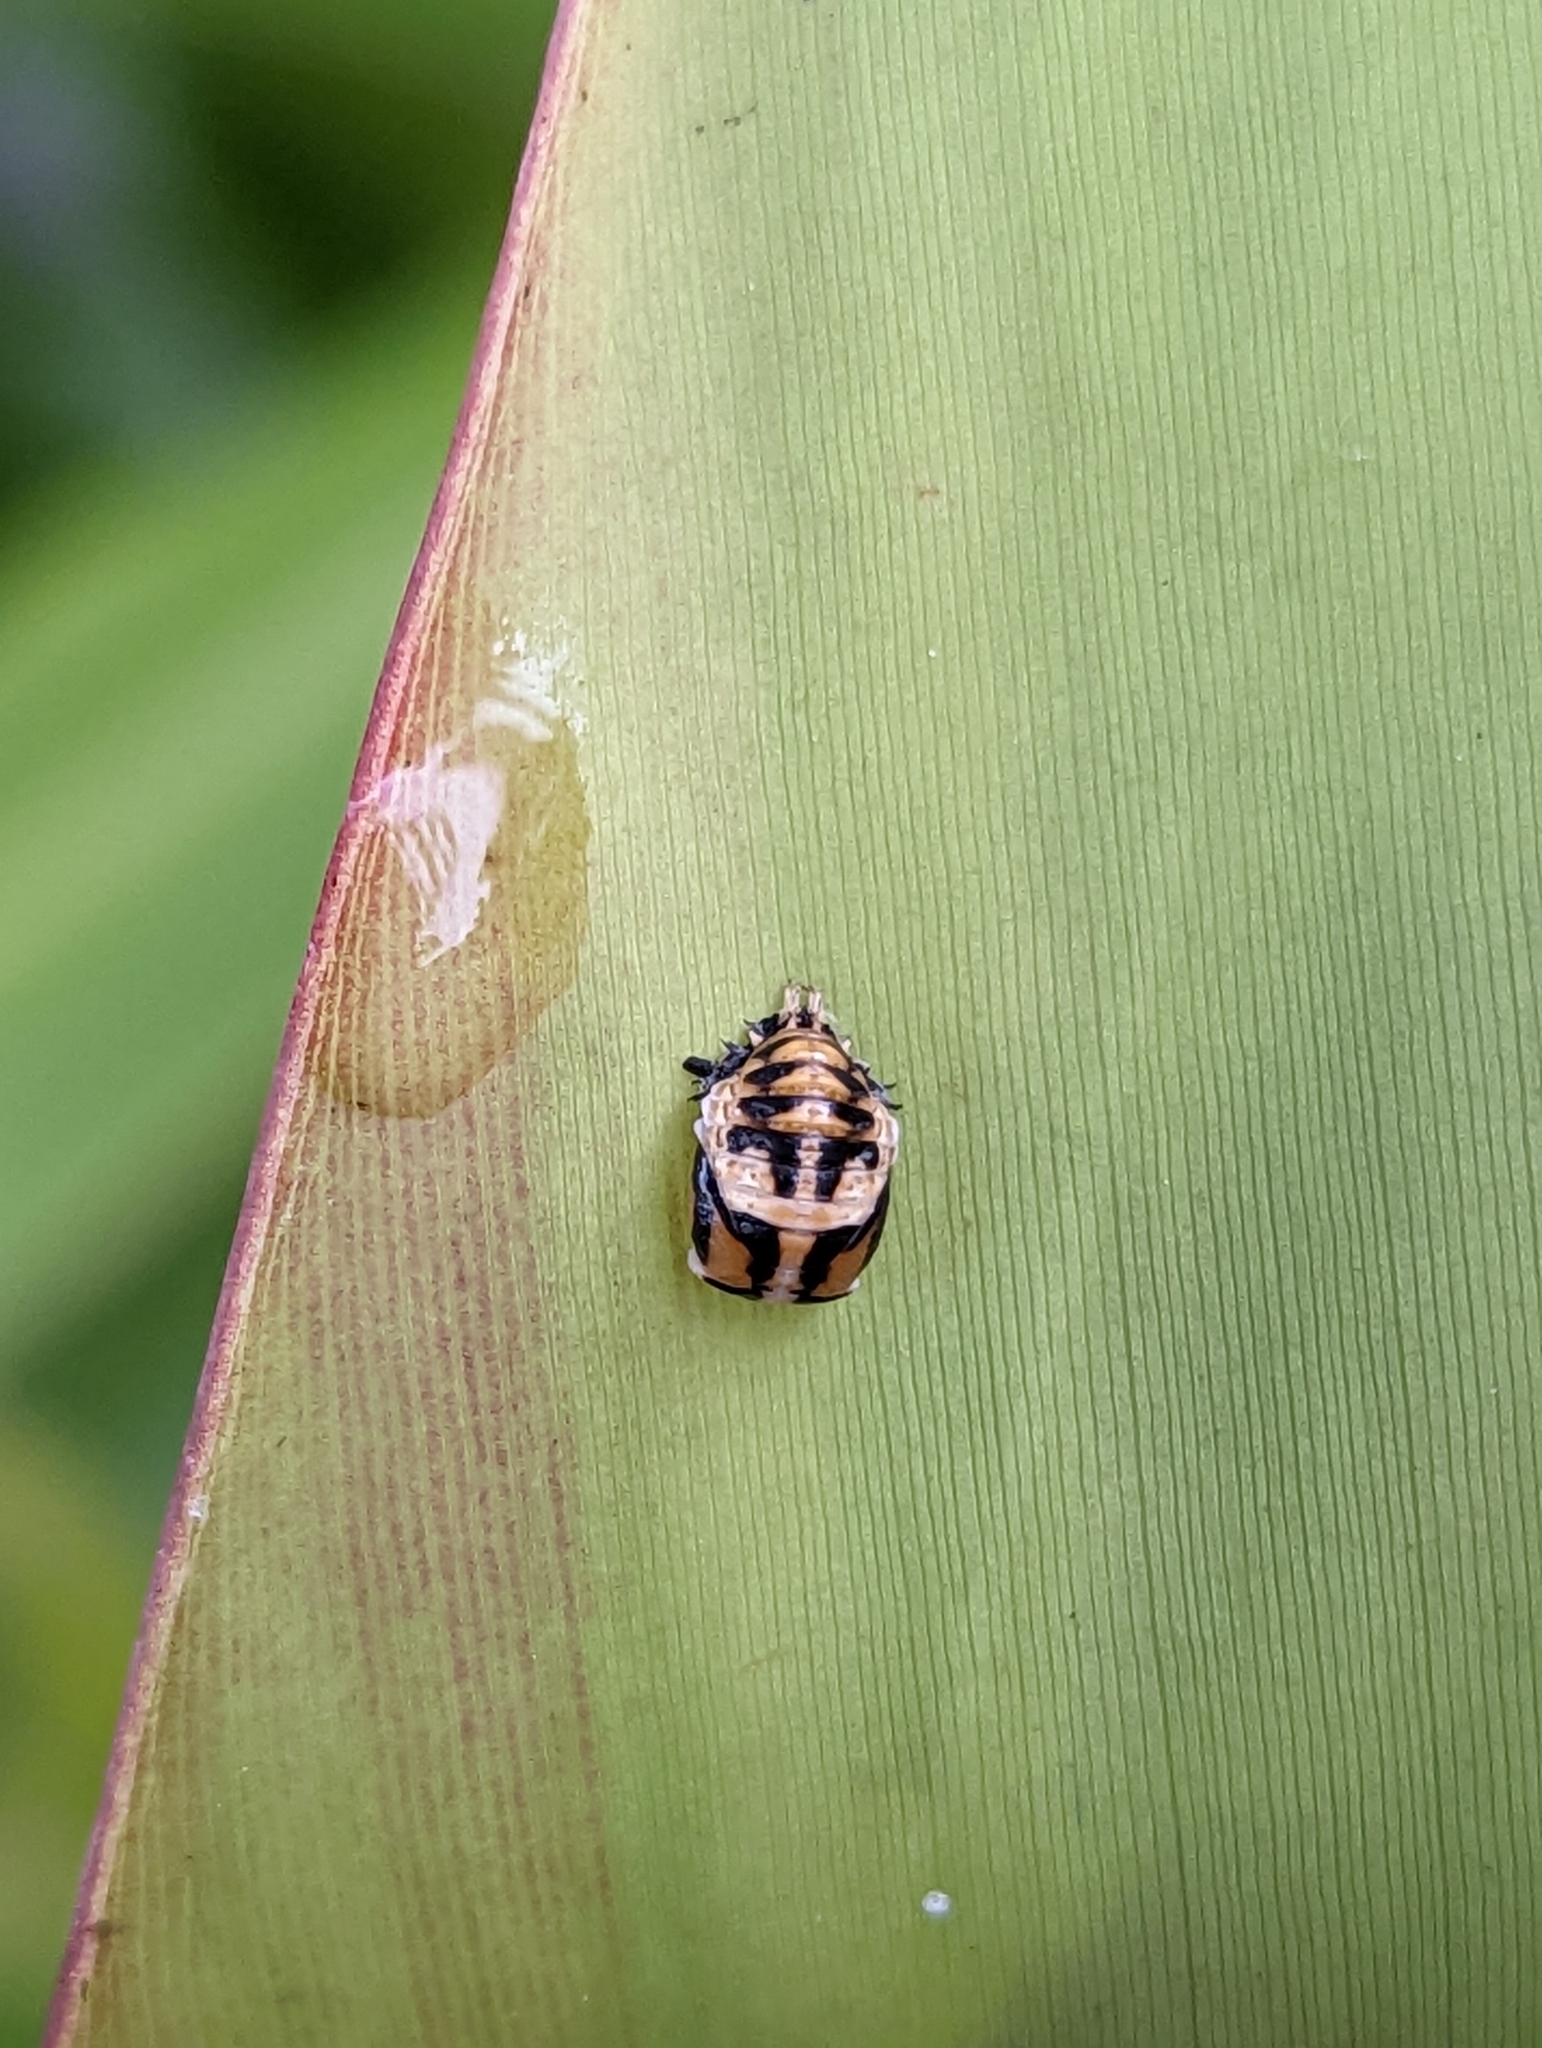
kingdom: Animalia
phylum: Arthropoda
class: Insecta
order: Coleoptera
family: Coccinellidae
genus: Harmonia
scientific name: Harmonia
